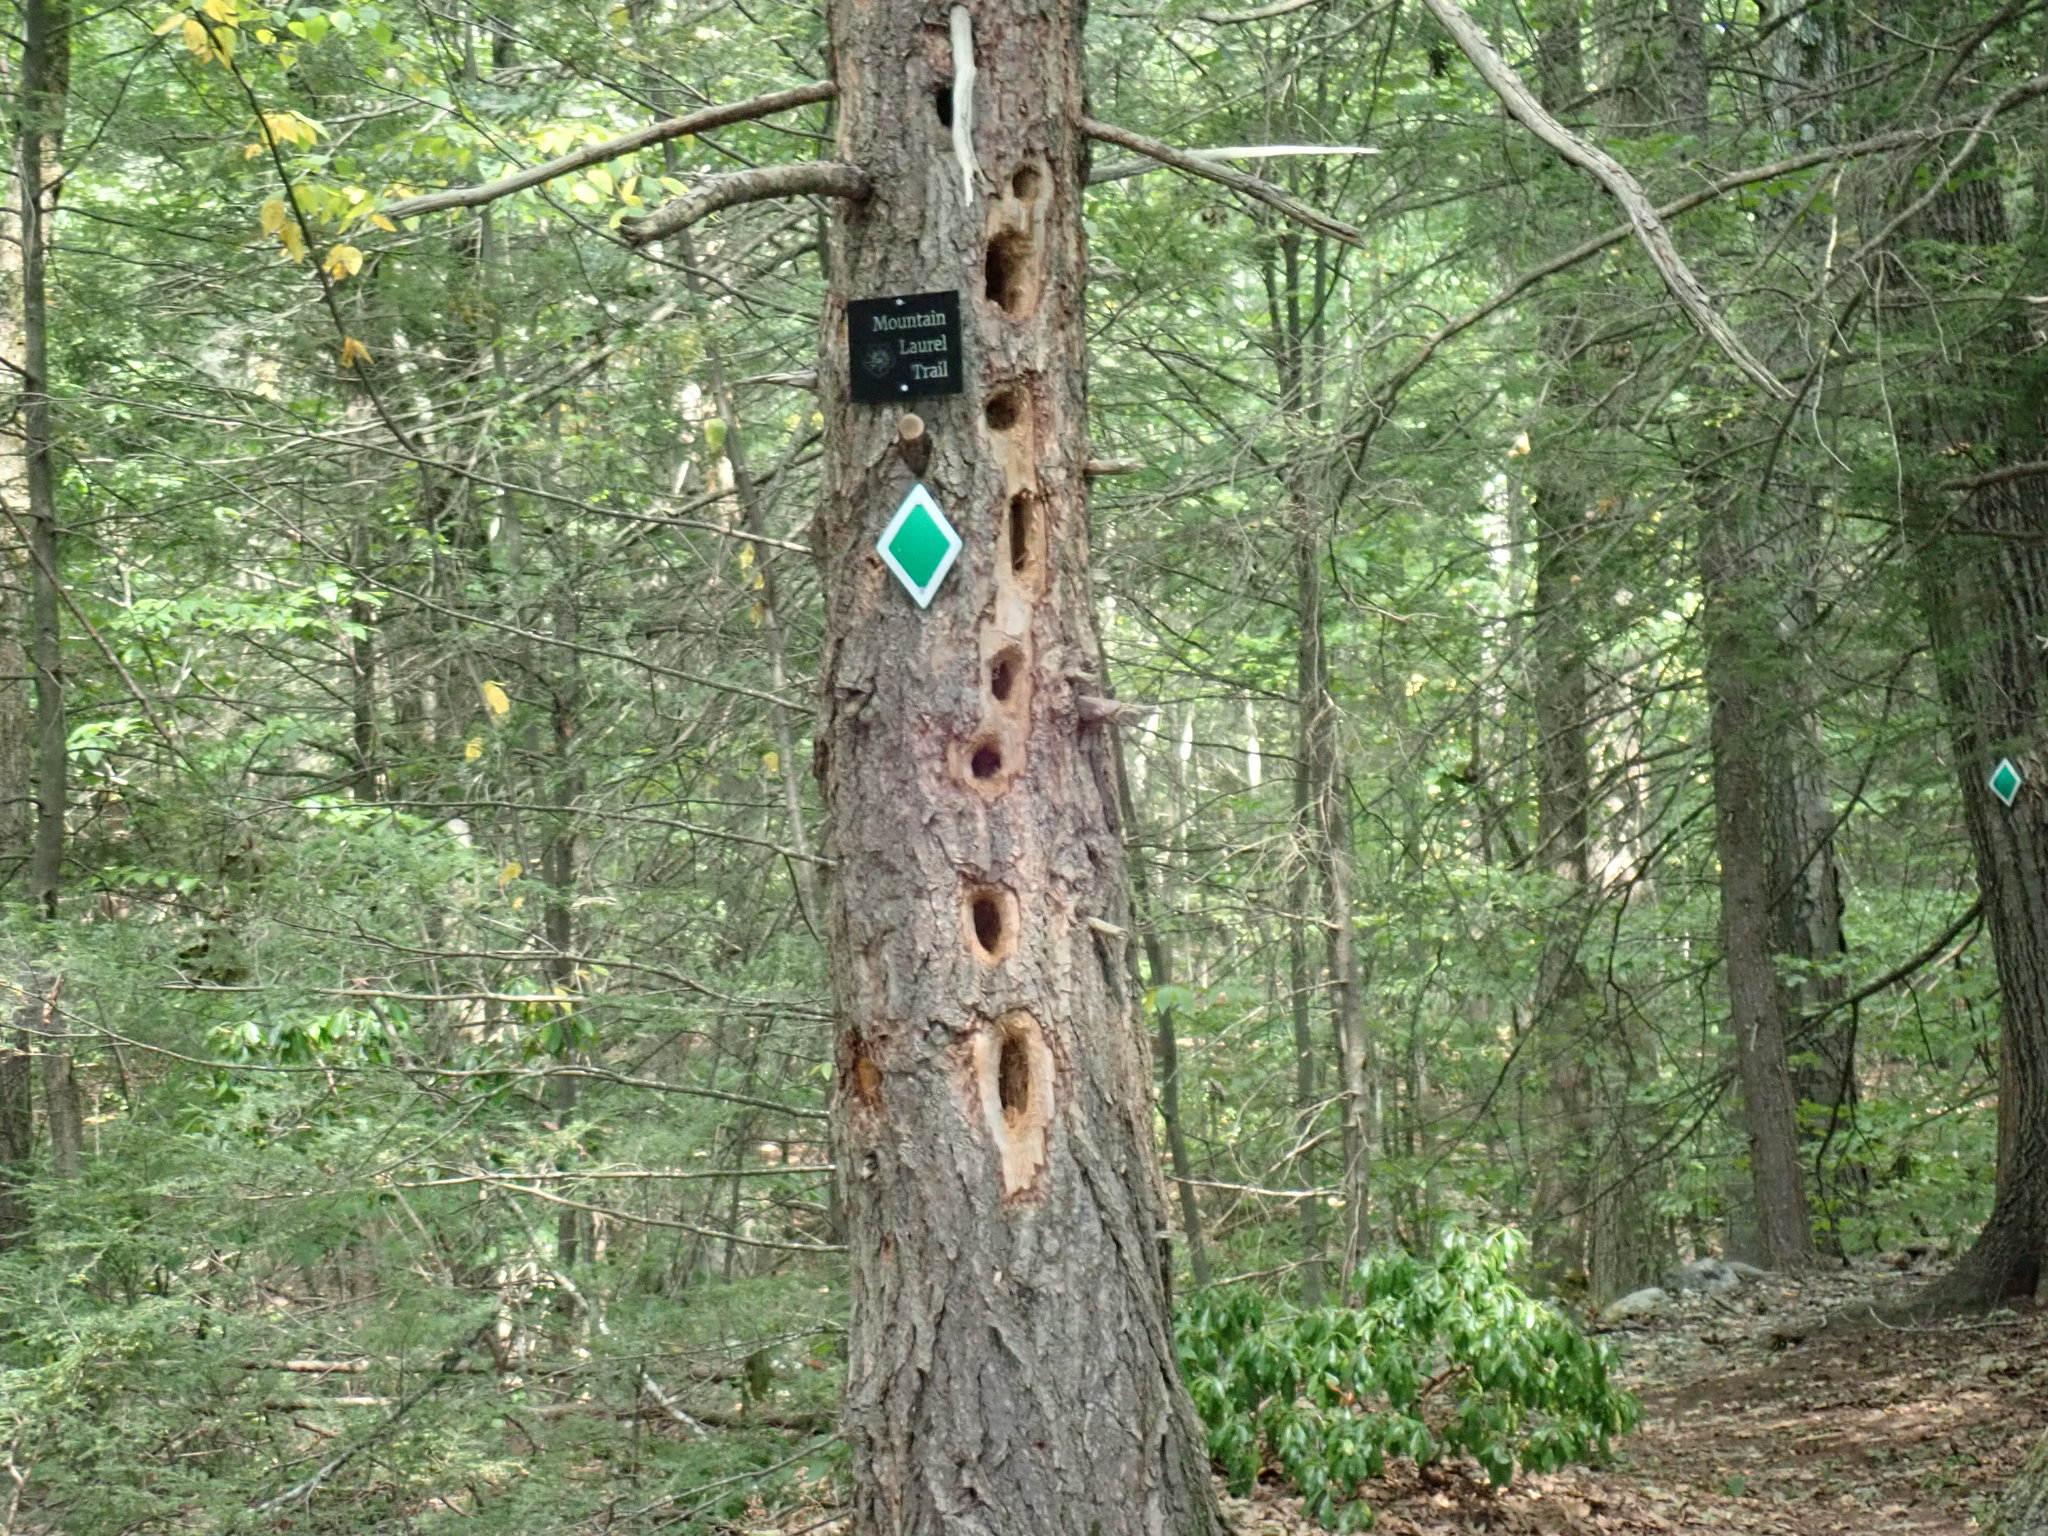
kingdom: Animalia
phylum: Chordata
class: Aves
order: Piciformes
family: Picidae
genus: Dryocopus
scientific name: Dryocopus pileatus
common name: Pileated woodpecker
